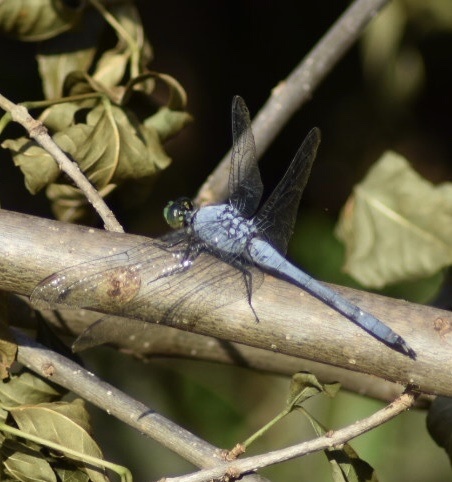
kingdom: Animalia
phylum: Arthropoda
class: Insecta
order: Odonata
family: Libellulidae
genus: Erythemis
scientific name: Erythemis simplicicollis
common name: Eastern pondhawk
